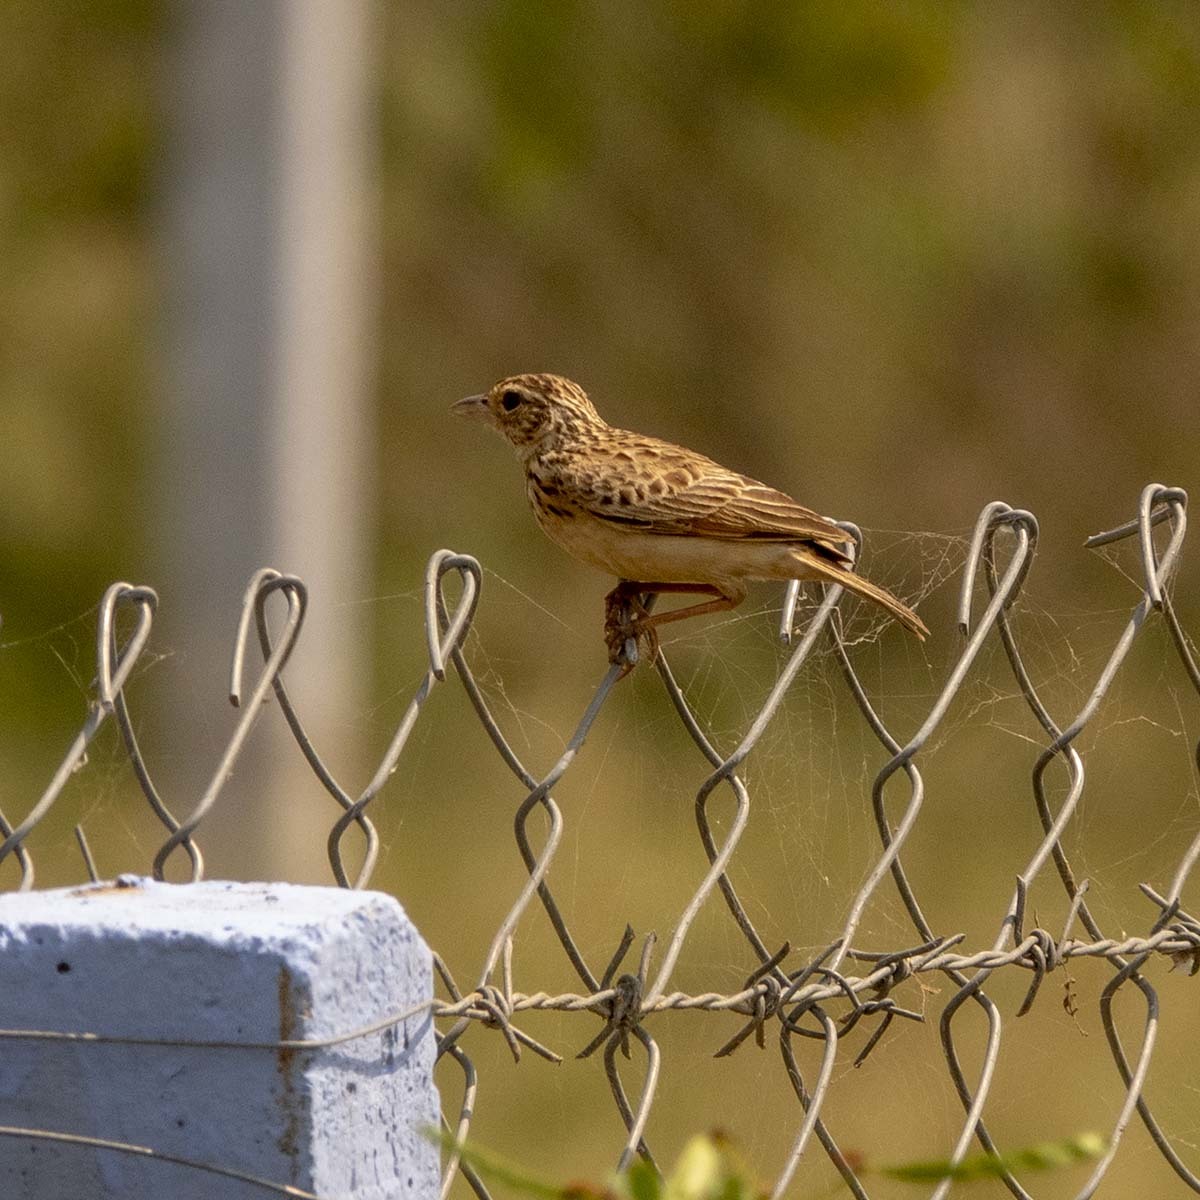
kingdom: Animalia
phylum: Chordata
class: Aves
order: Passeriformes
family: Alaudidae
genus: Mirafra
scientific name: Mirafra affinis
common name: Jerdon's bushlark
